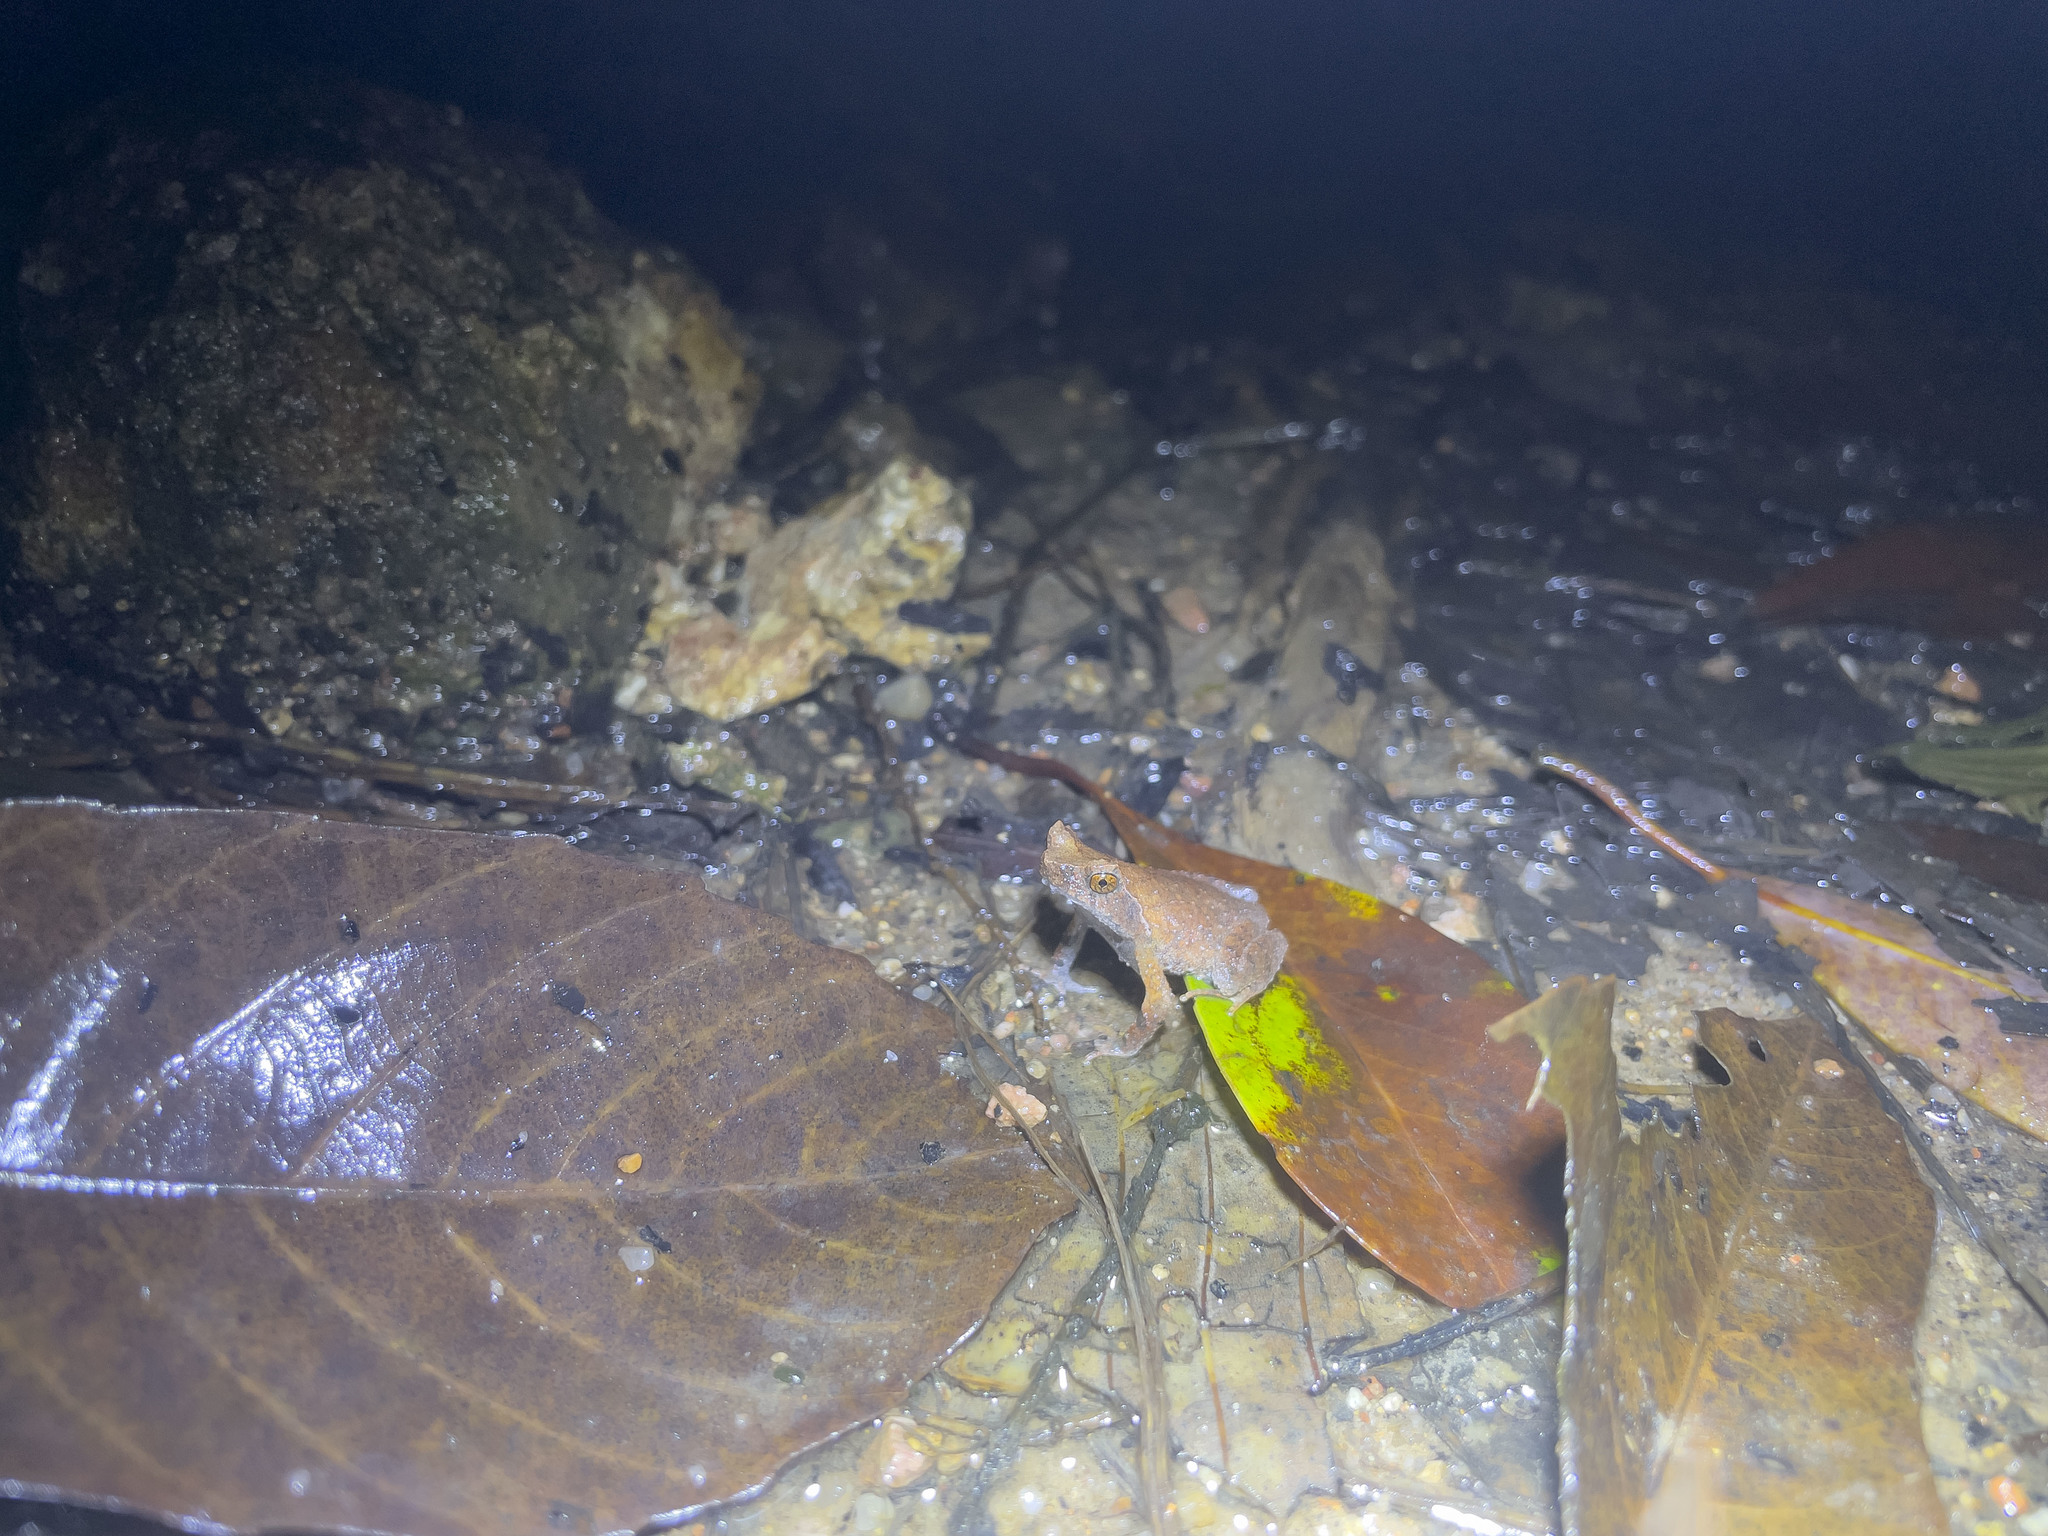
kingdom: Animalia
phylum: Chordata
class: Amphibia
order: Anura
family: Megophryidae
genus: Megophrys
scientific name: Megophrys brachykolos
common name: Short-legged horned toad
